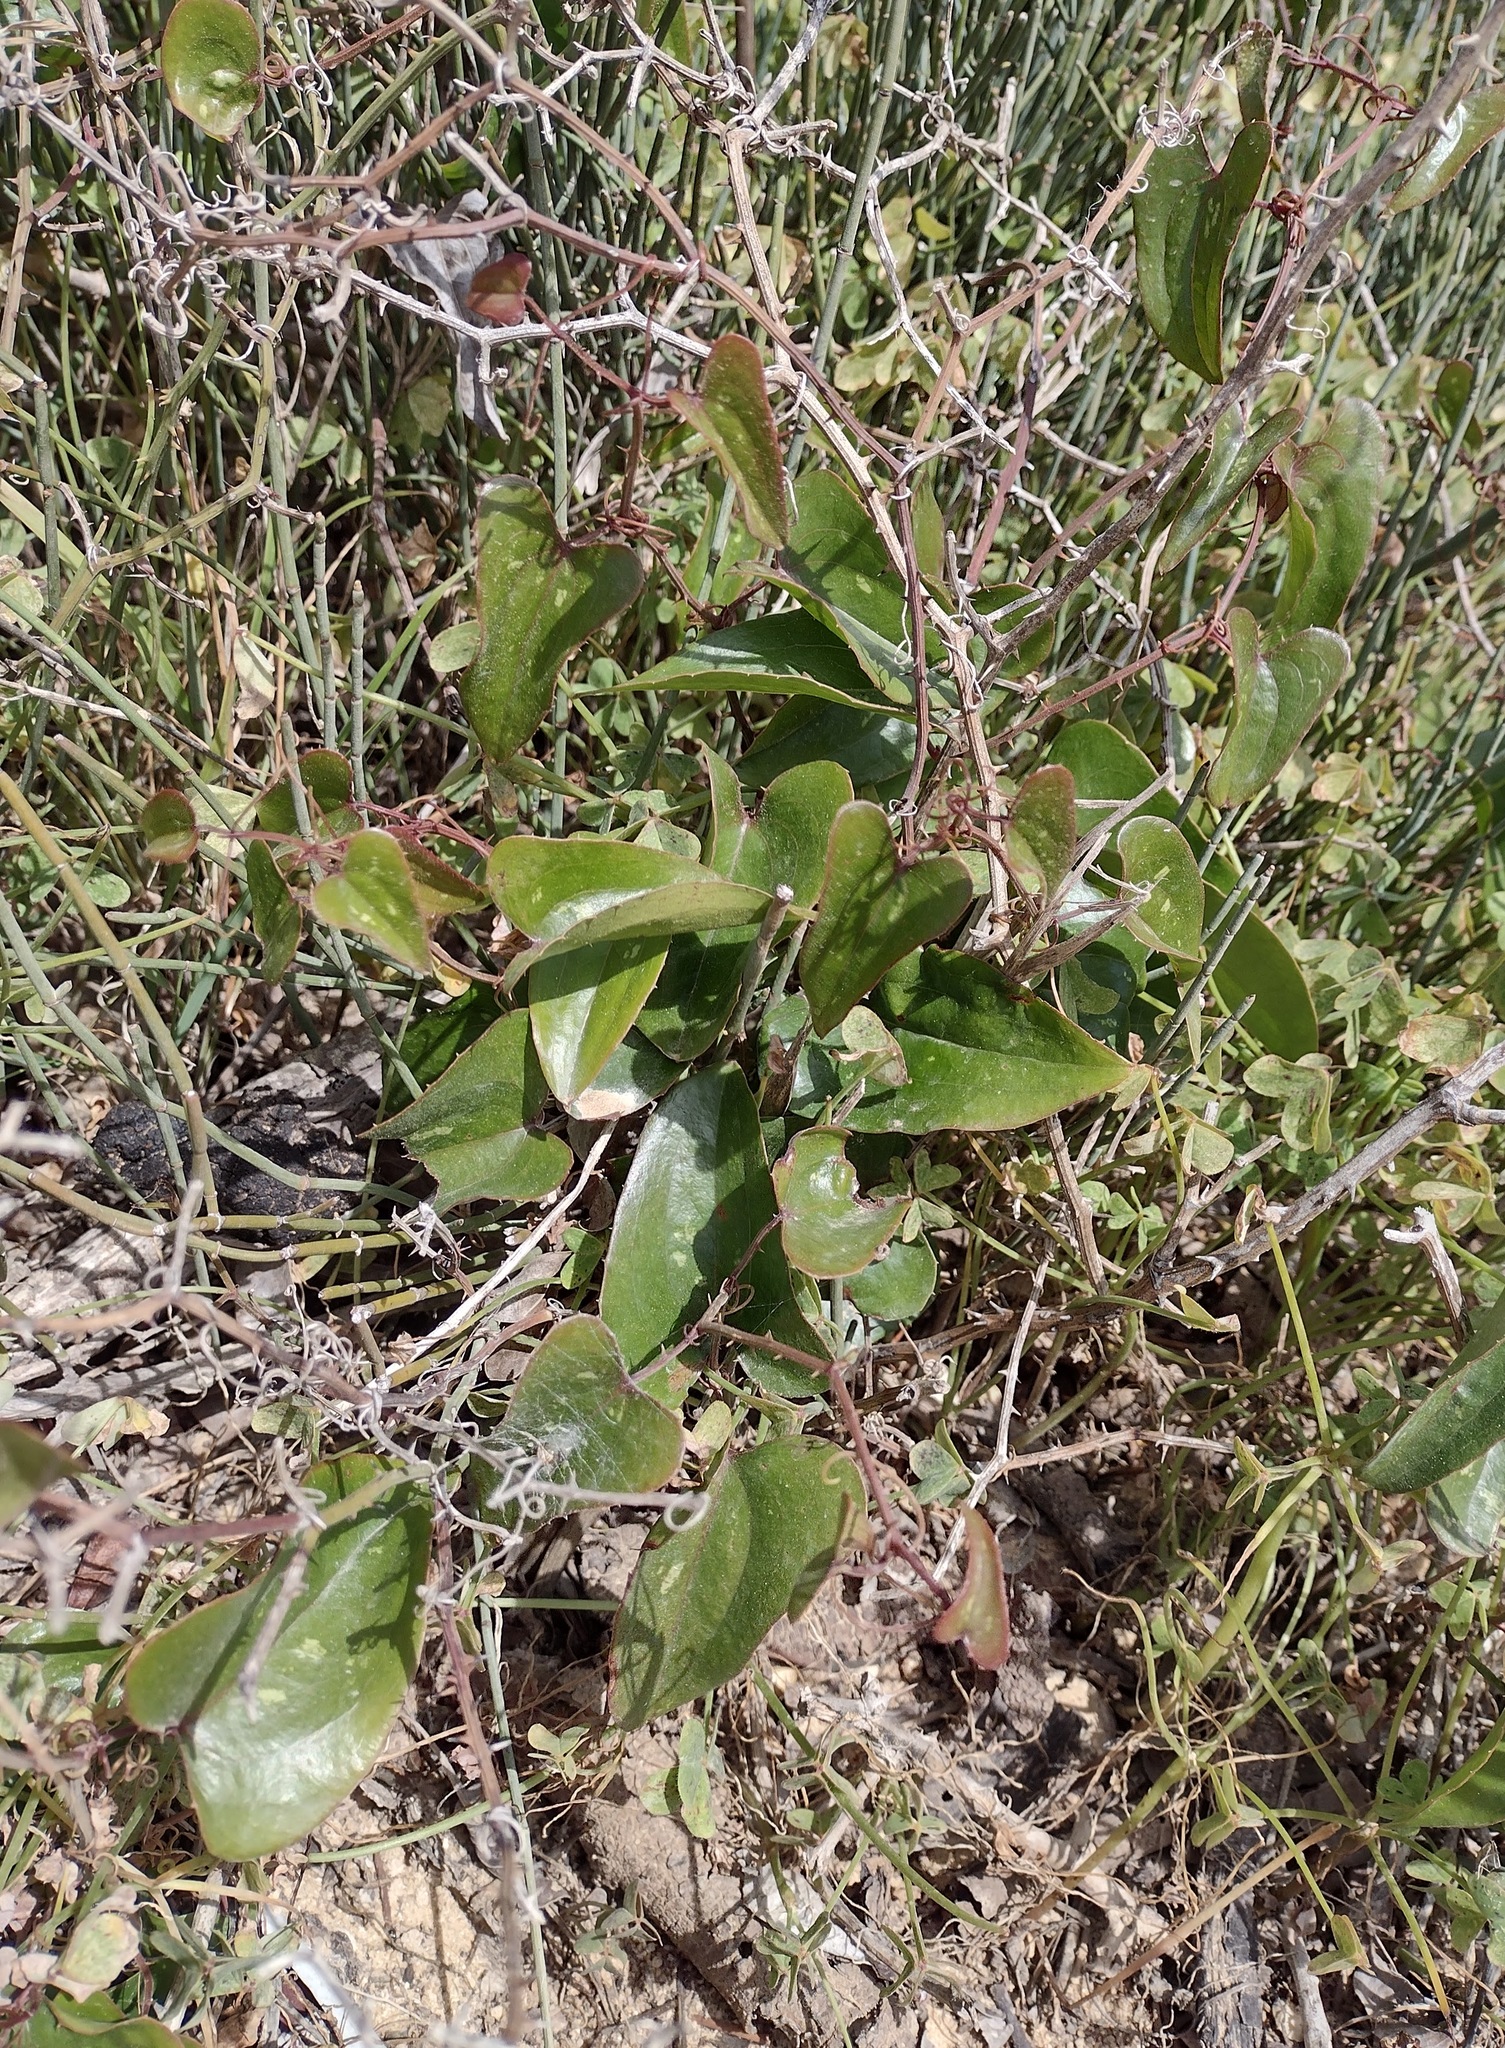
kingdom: Plantae
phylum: Tracheophyta
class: Liliopsida
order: Liliales
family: Smilacaceae
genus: Smilax
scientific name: Smilax aspera
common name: Common smilax
